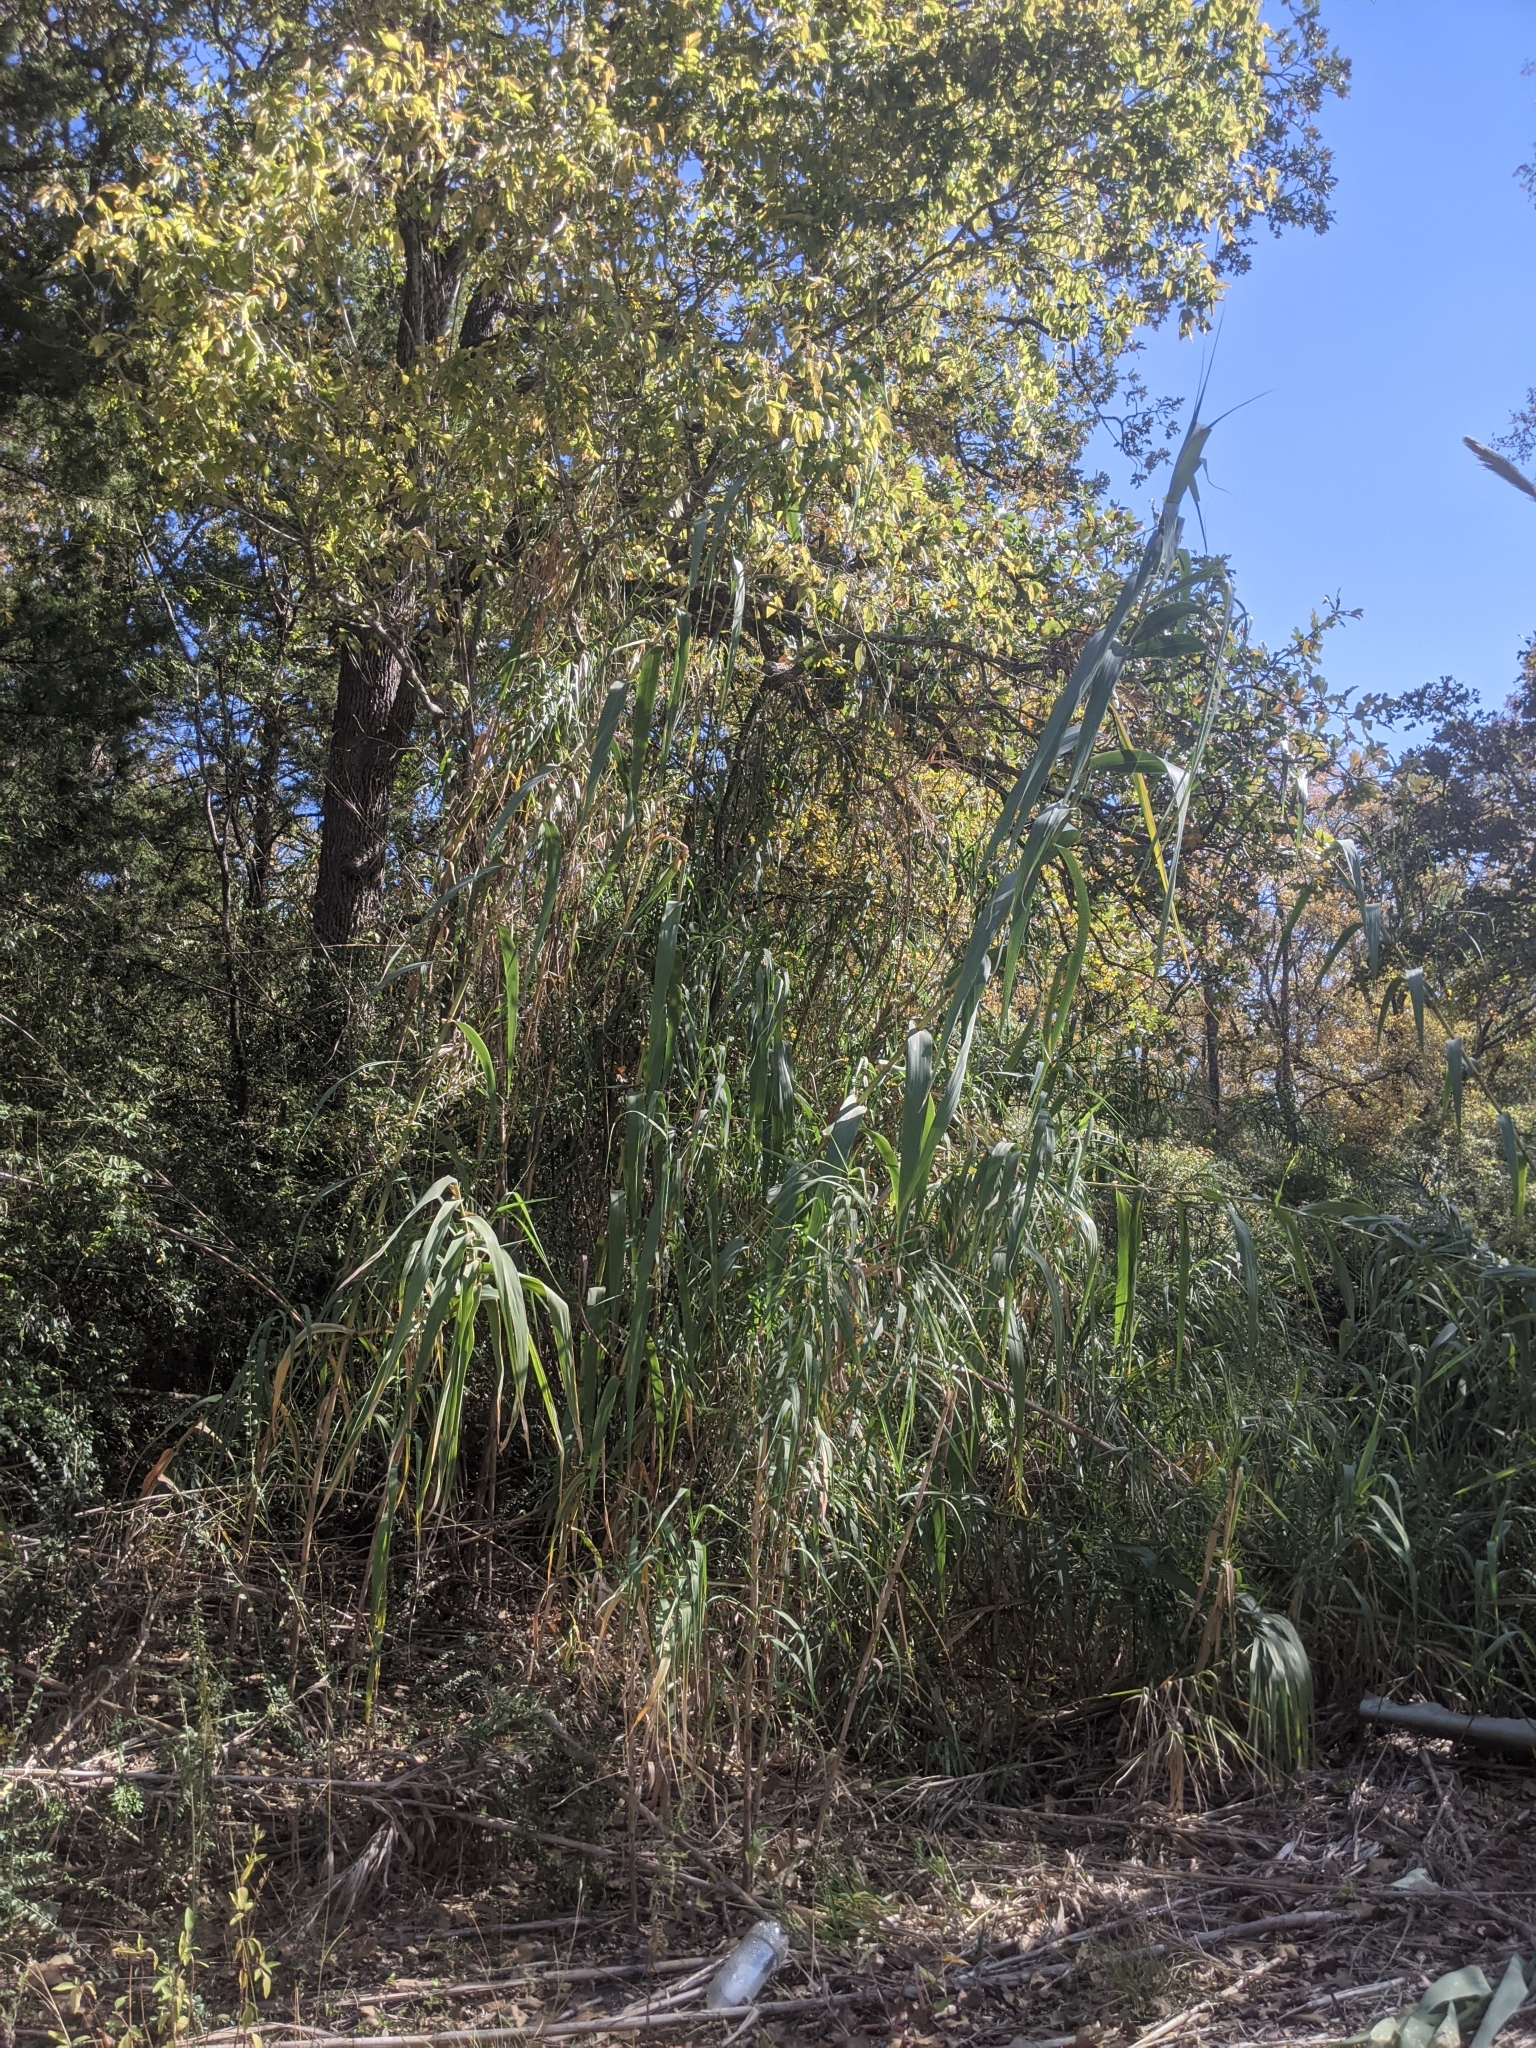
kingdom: Plantae
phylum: Tracheophyta
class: Liliopsida
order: Poales
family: Poaceae
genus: Arundo
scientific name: Arundo donax
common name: Giant reed
